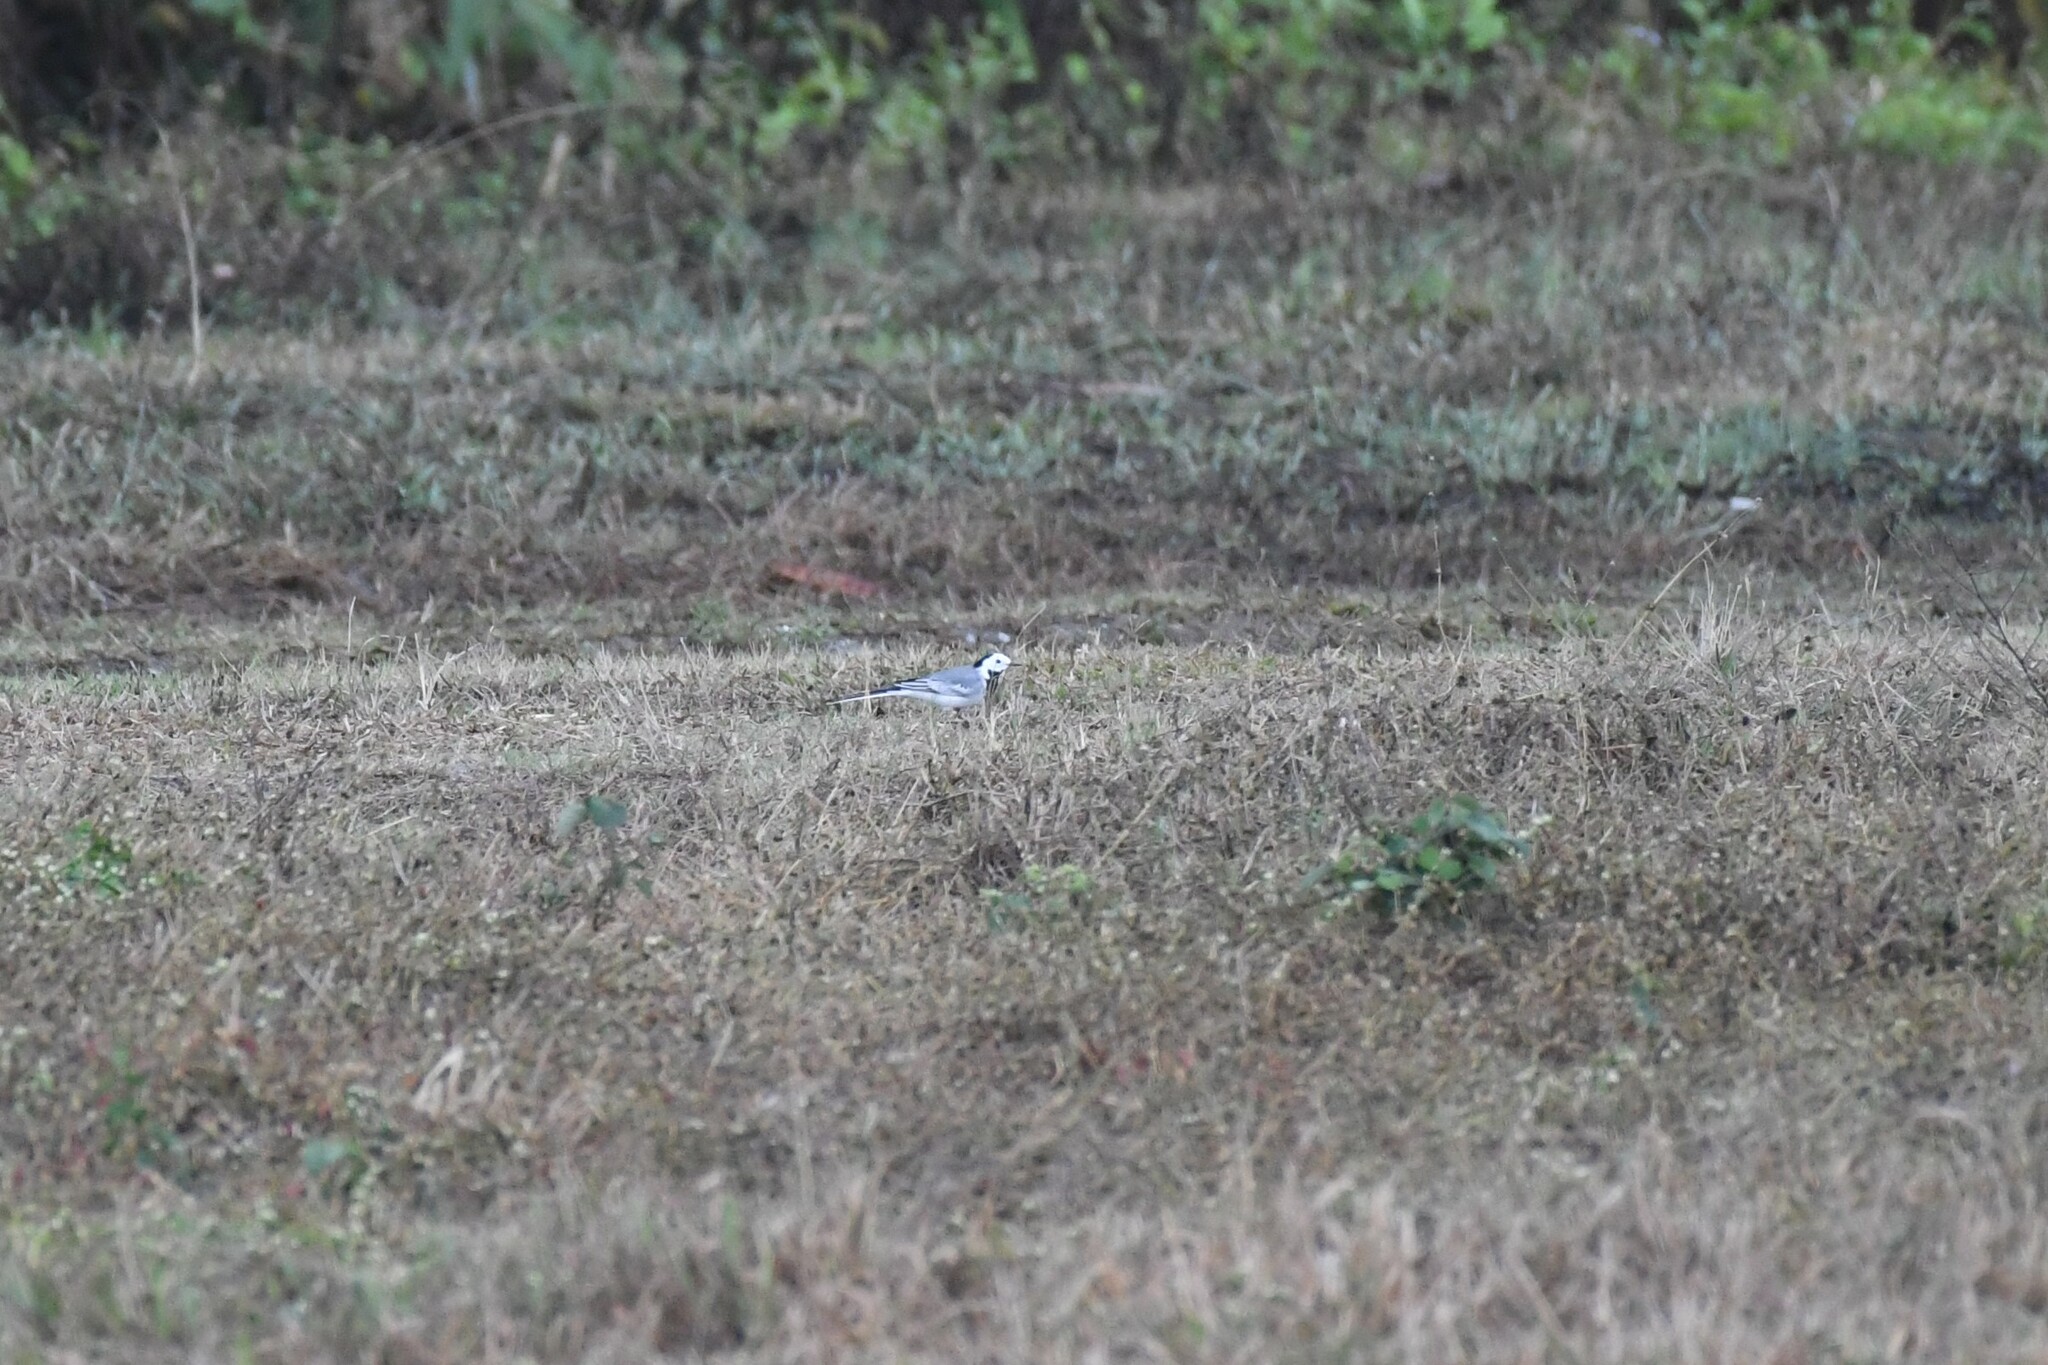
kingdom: Animalia
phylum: Chordata
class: Aves
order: Passeriformes
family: Motacillidae
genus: Motacilla
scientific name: Motacilla alba
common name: White wagtail
